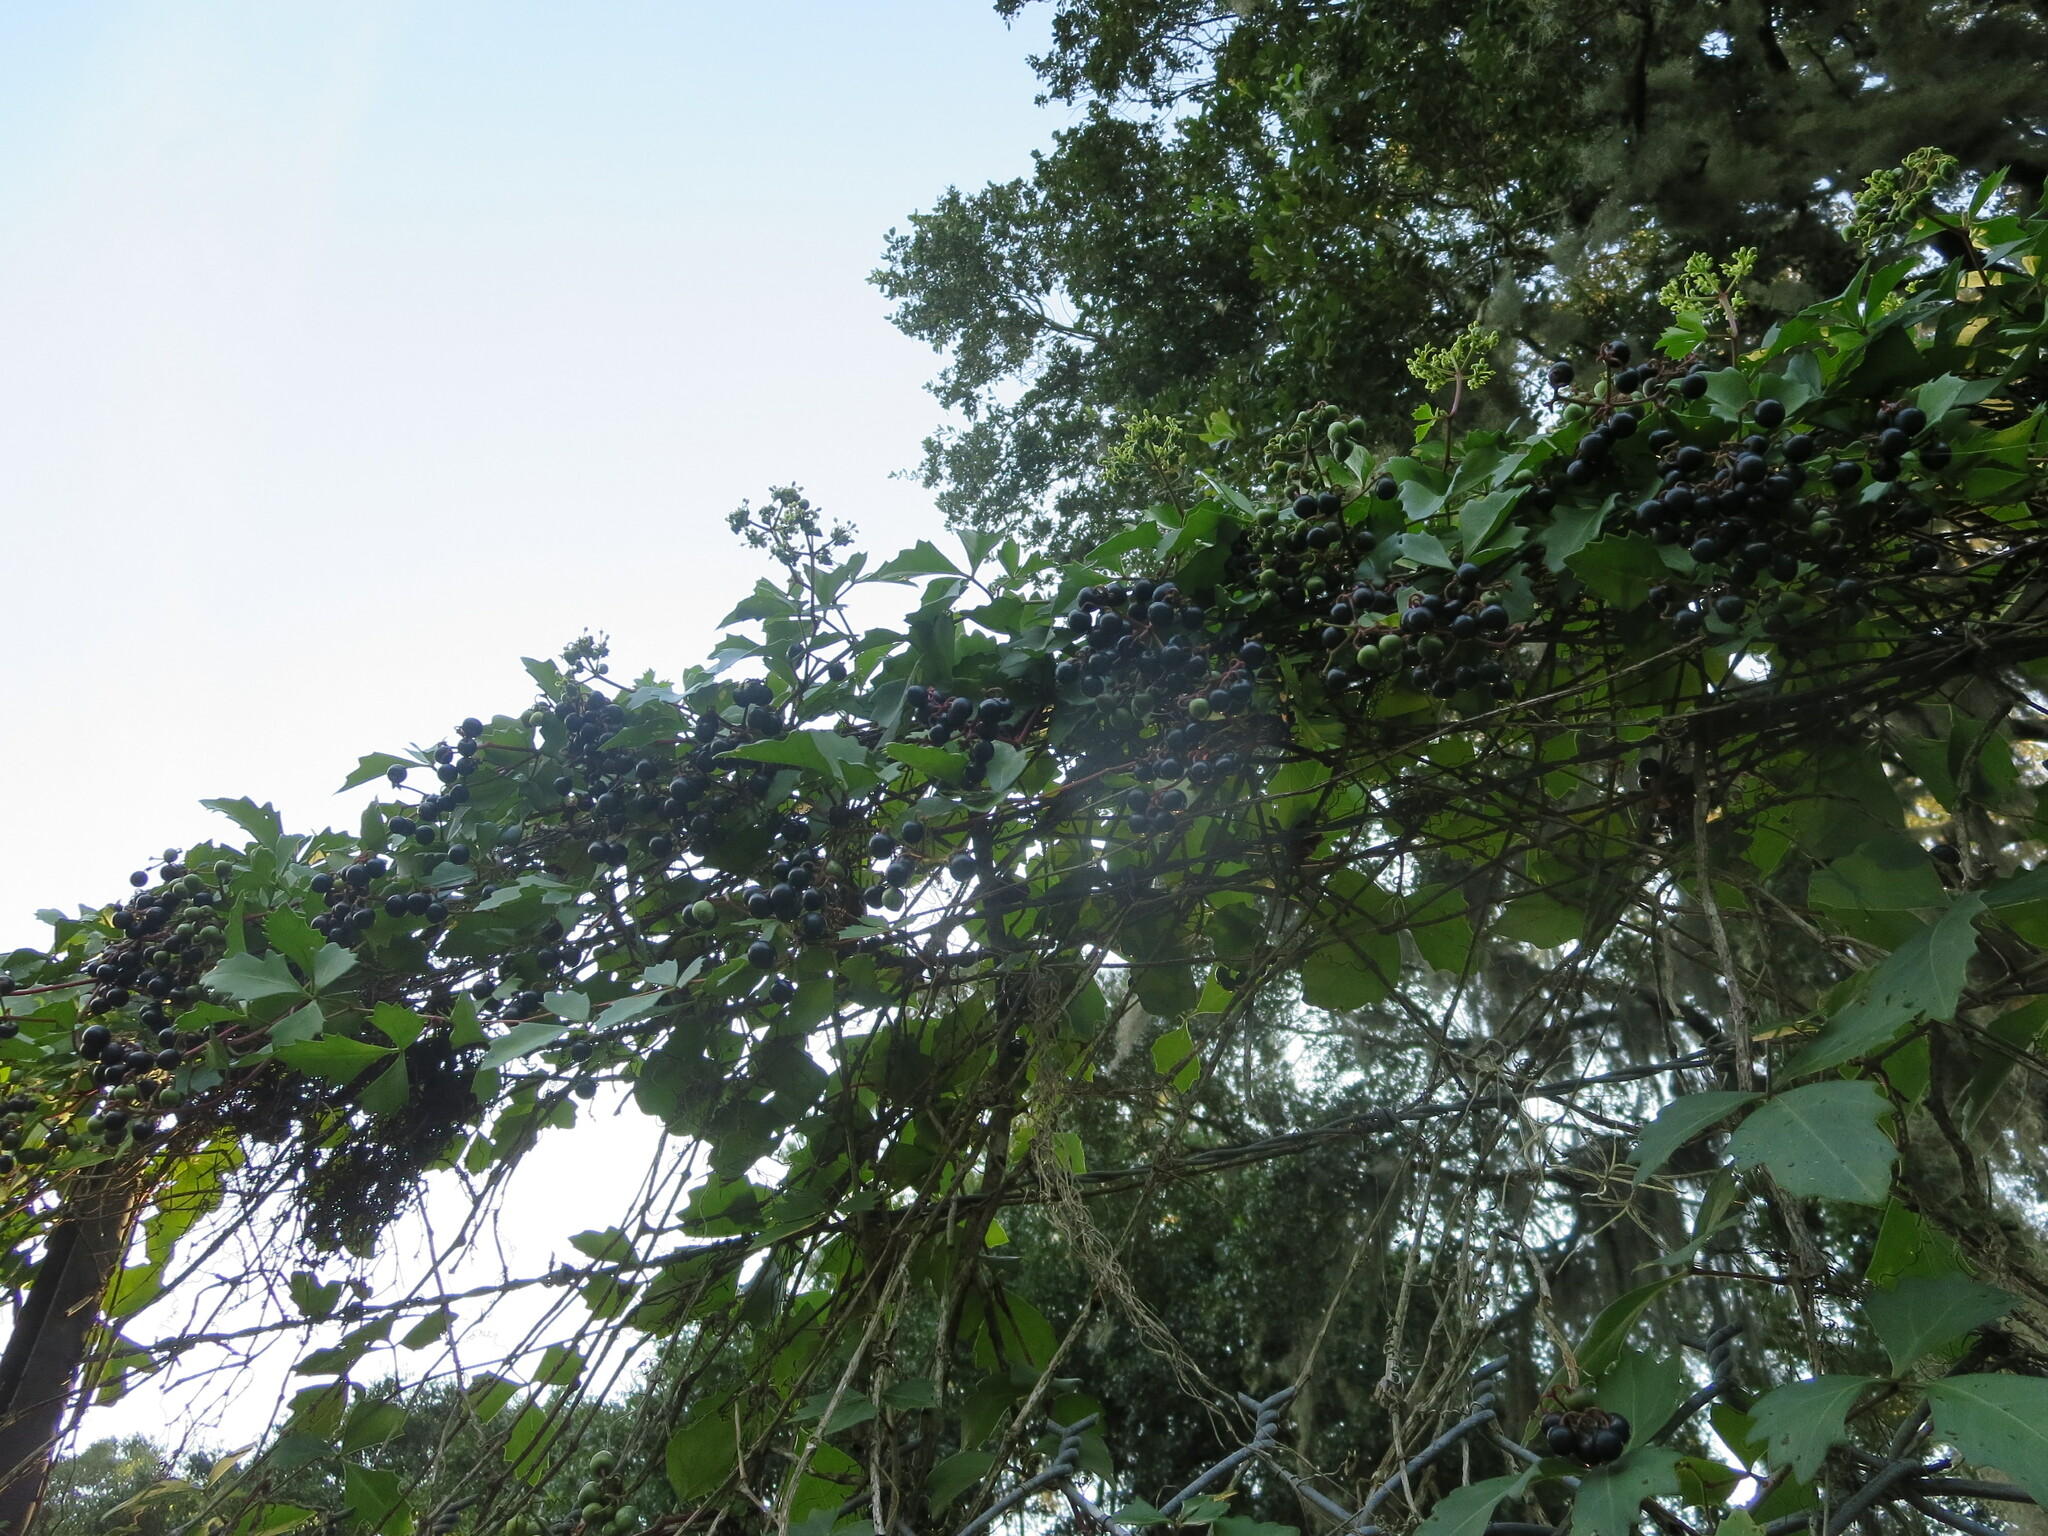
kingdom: Plantae
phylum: Tracheophyta
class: Magnoliopsida
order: Vitales
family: Vitaceae
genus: Cissus
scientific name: Cissus trifoliata
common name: Vine-sorrel
